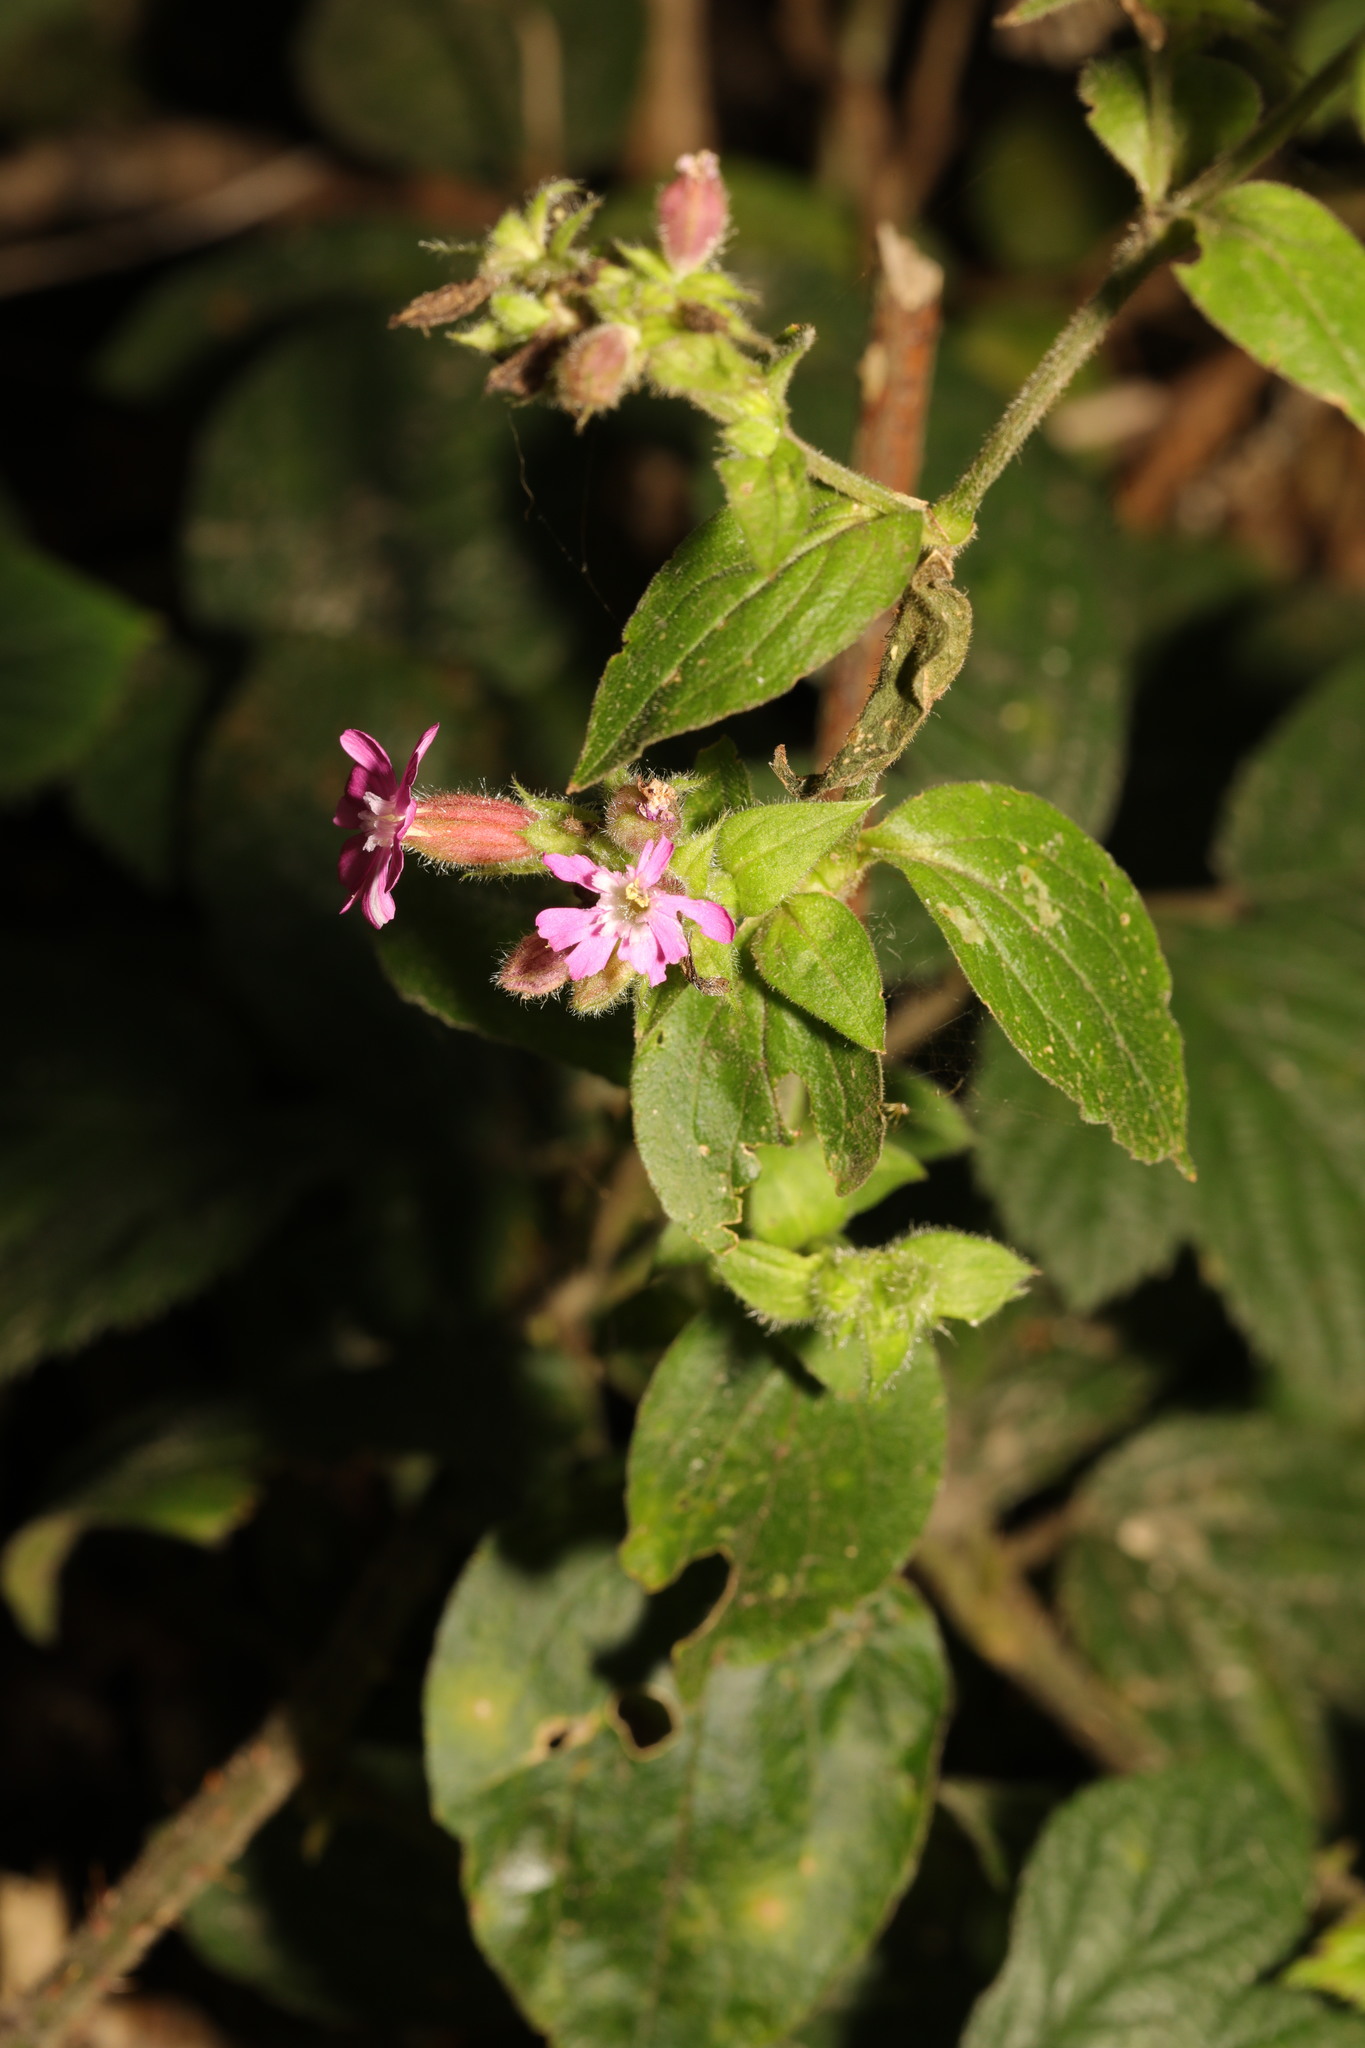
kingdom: Plantae
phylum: Tracheophyta
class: Magnoliopsida
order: Caryophyllales
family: Caryophyllaceae
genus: Silene
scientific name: Silene dioica
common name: Red campion
